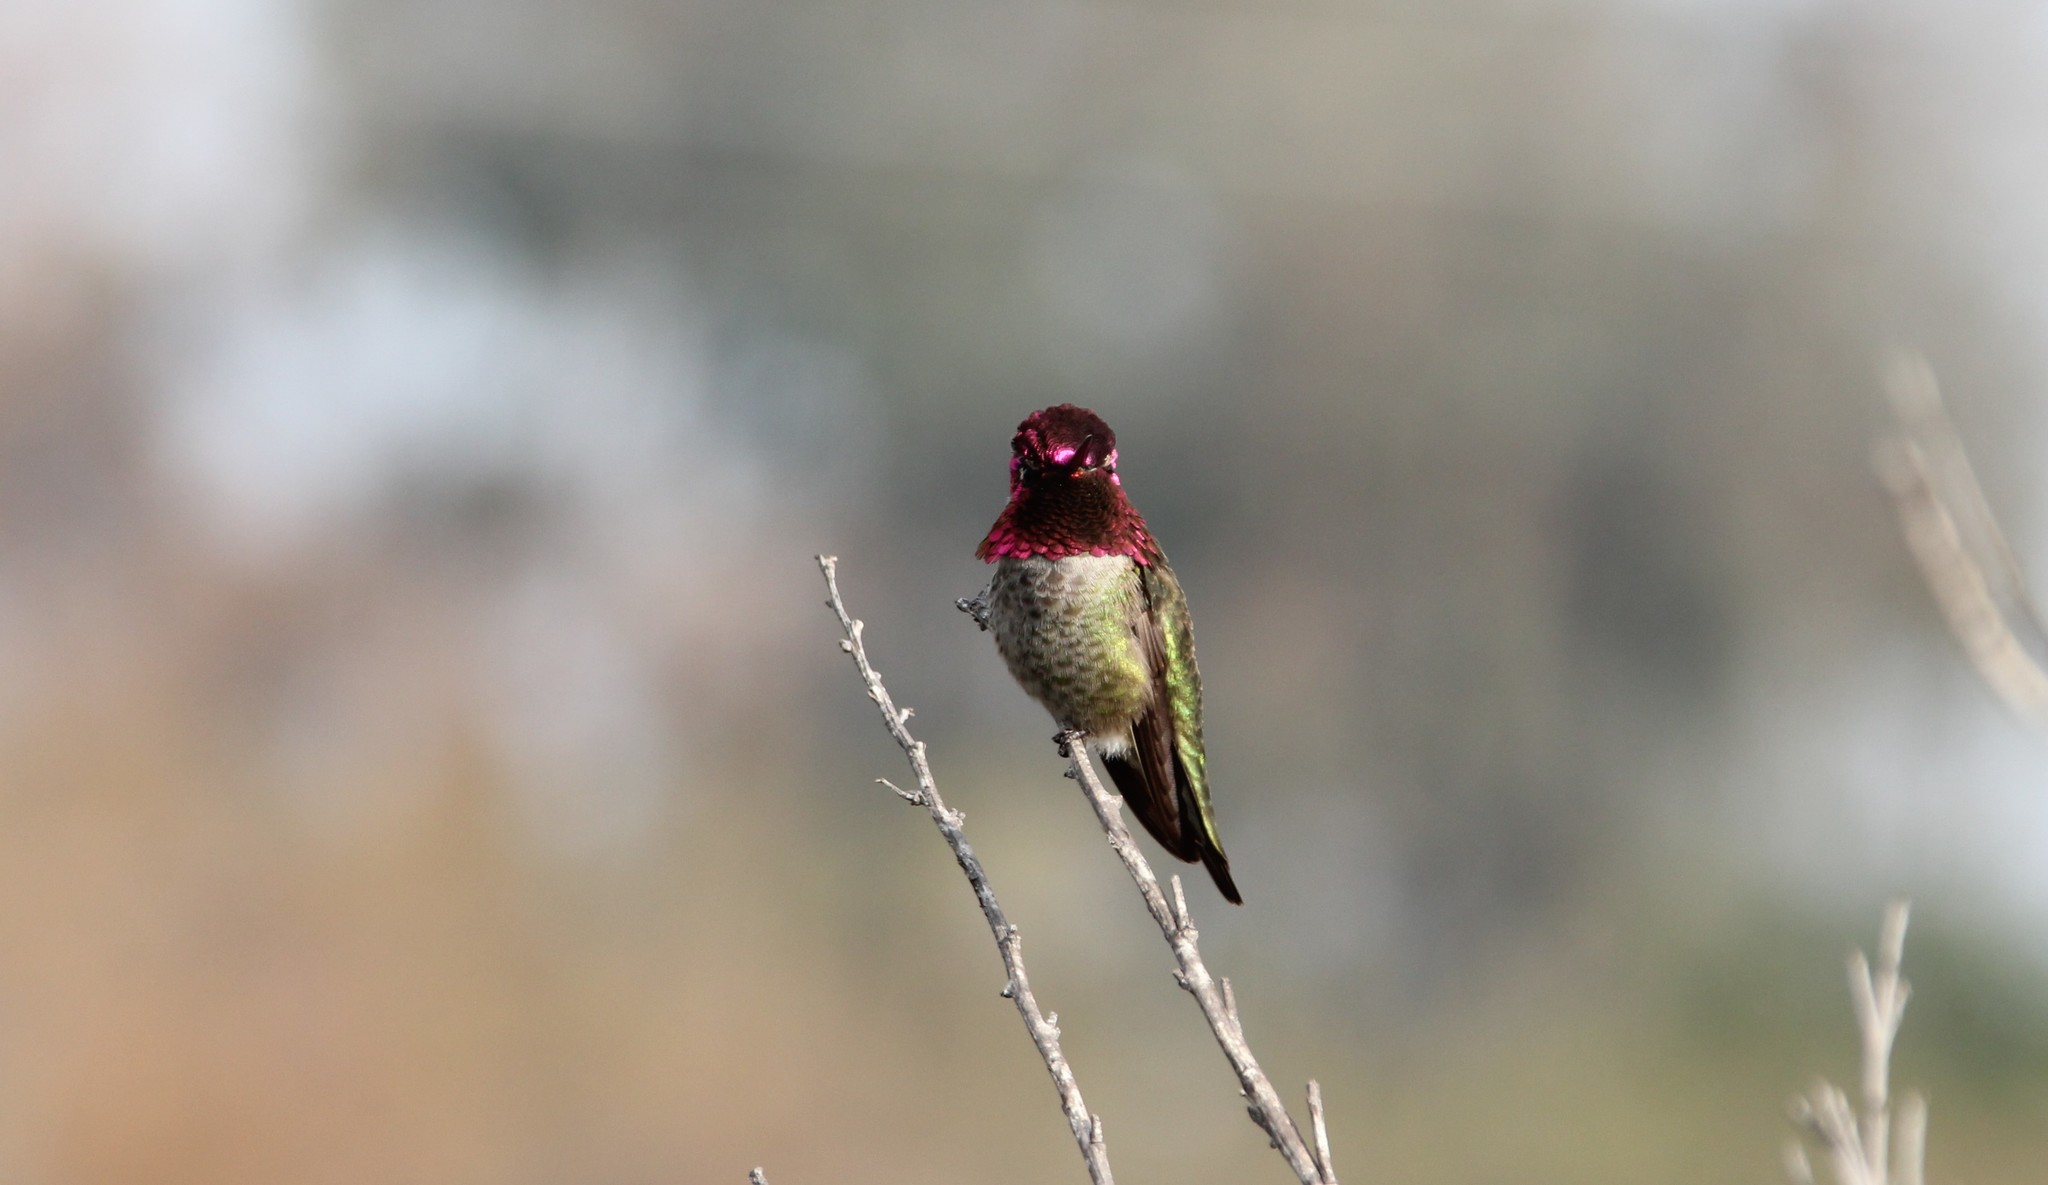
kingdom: Animalia
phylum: Chordata
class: Aves
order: Apodiformes
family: Trochilidae
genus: Calypte
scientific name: Calypte anna
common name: Anna's hummingbird
